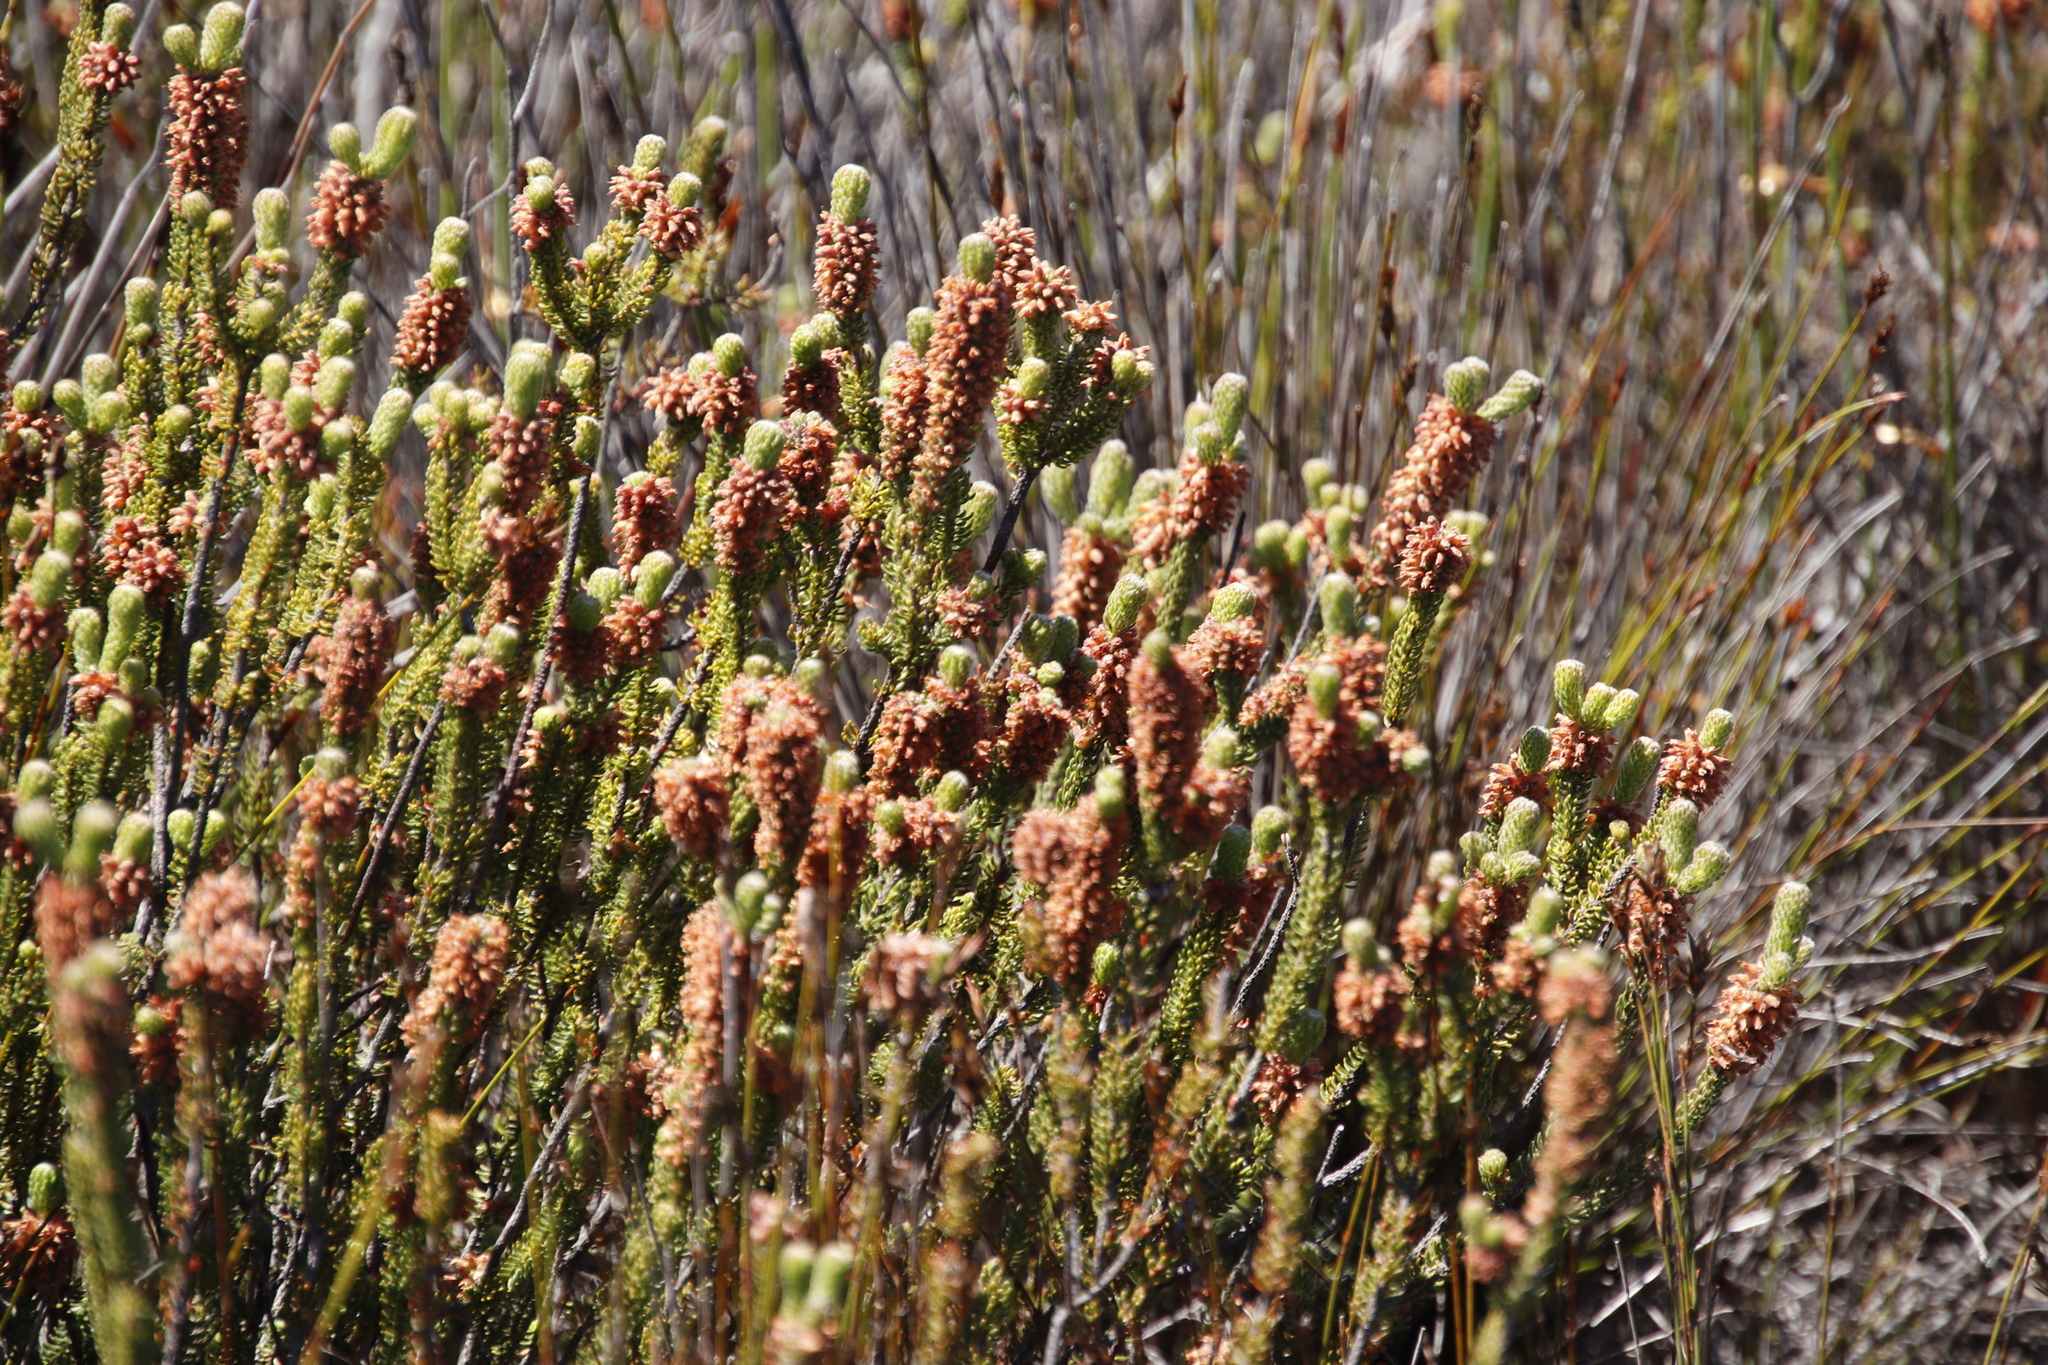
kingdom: Plantae
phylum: Tracheophyta
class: Magnoliopsida
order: Ericales
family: Ericaceae
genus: Erica
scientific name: Erica empetrina
